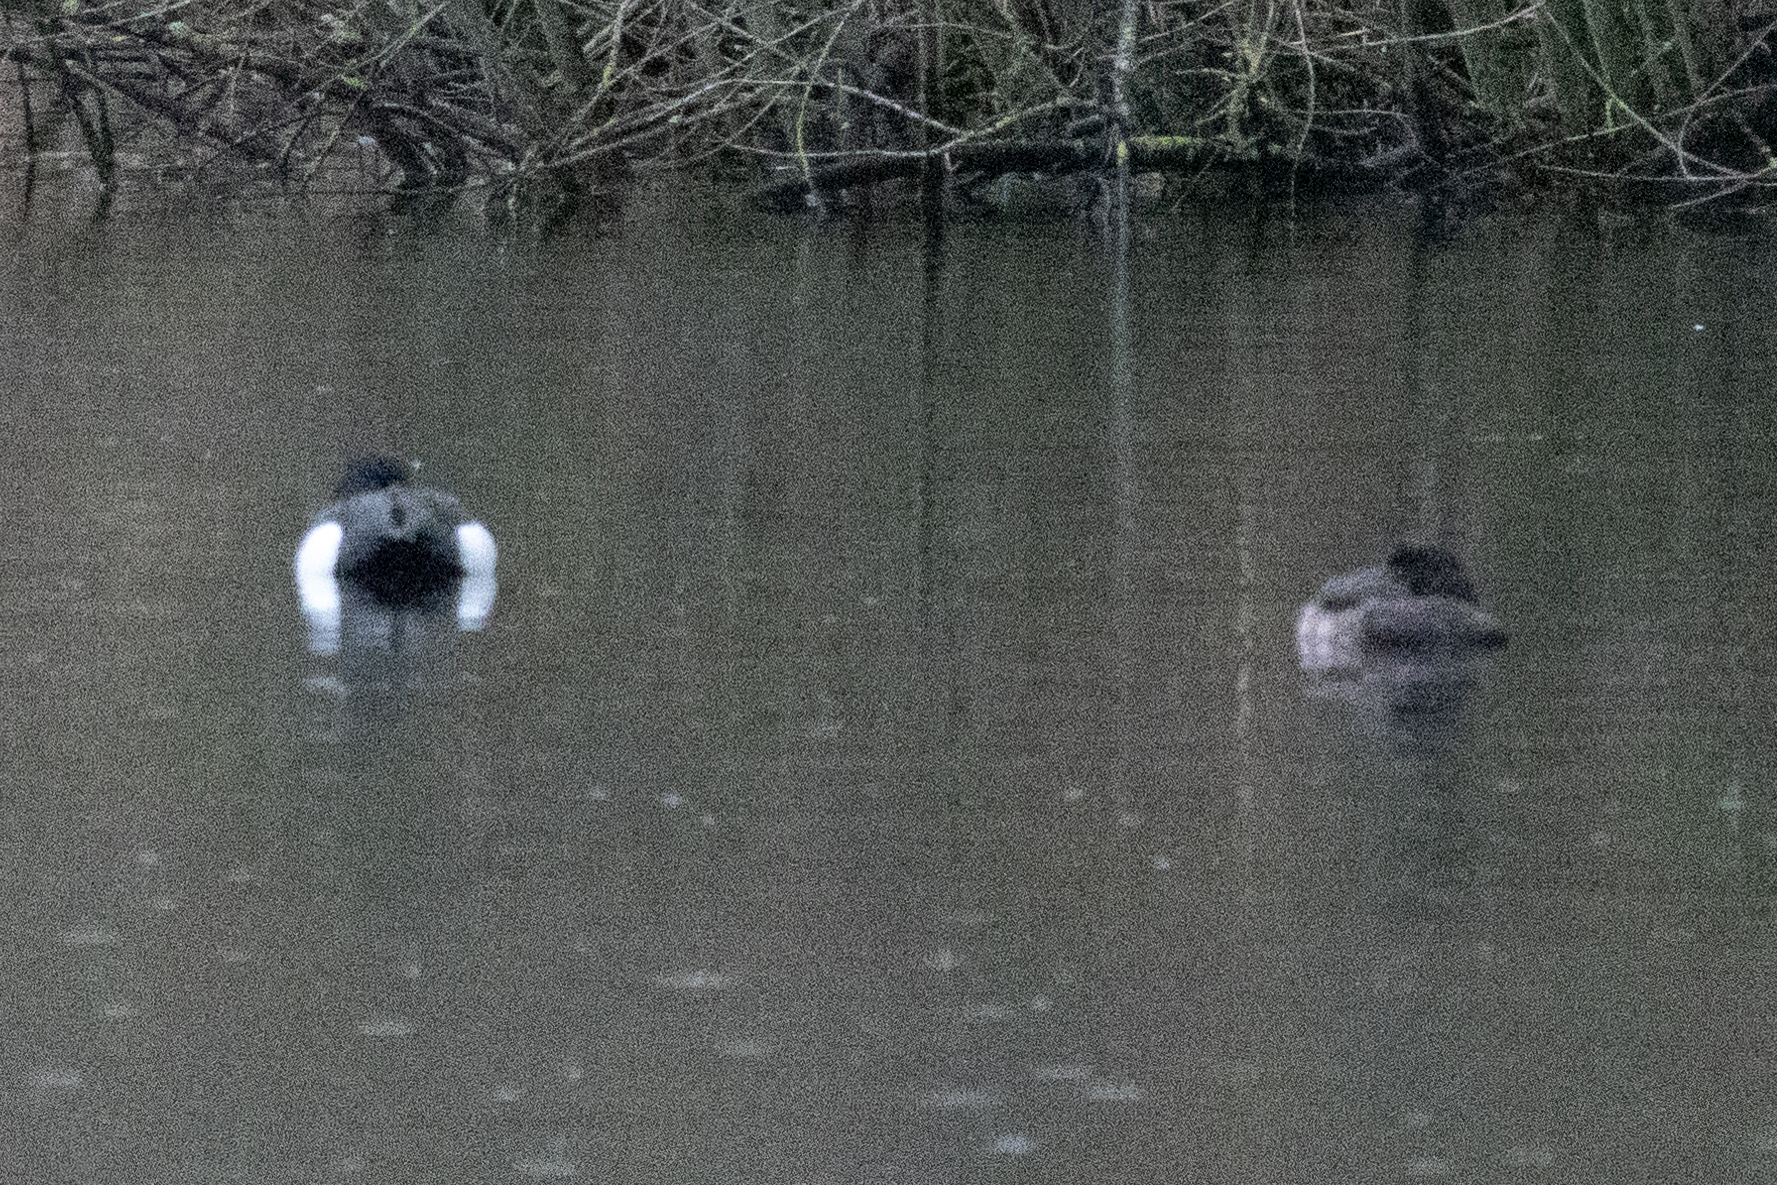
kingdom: Animalia
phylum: Chordata
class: Aves
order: Anseriformes
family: Anatidae
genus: Aythya
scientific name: Aythya fuligula
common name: Tufted duck
